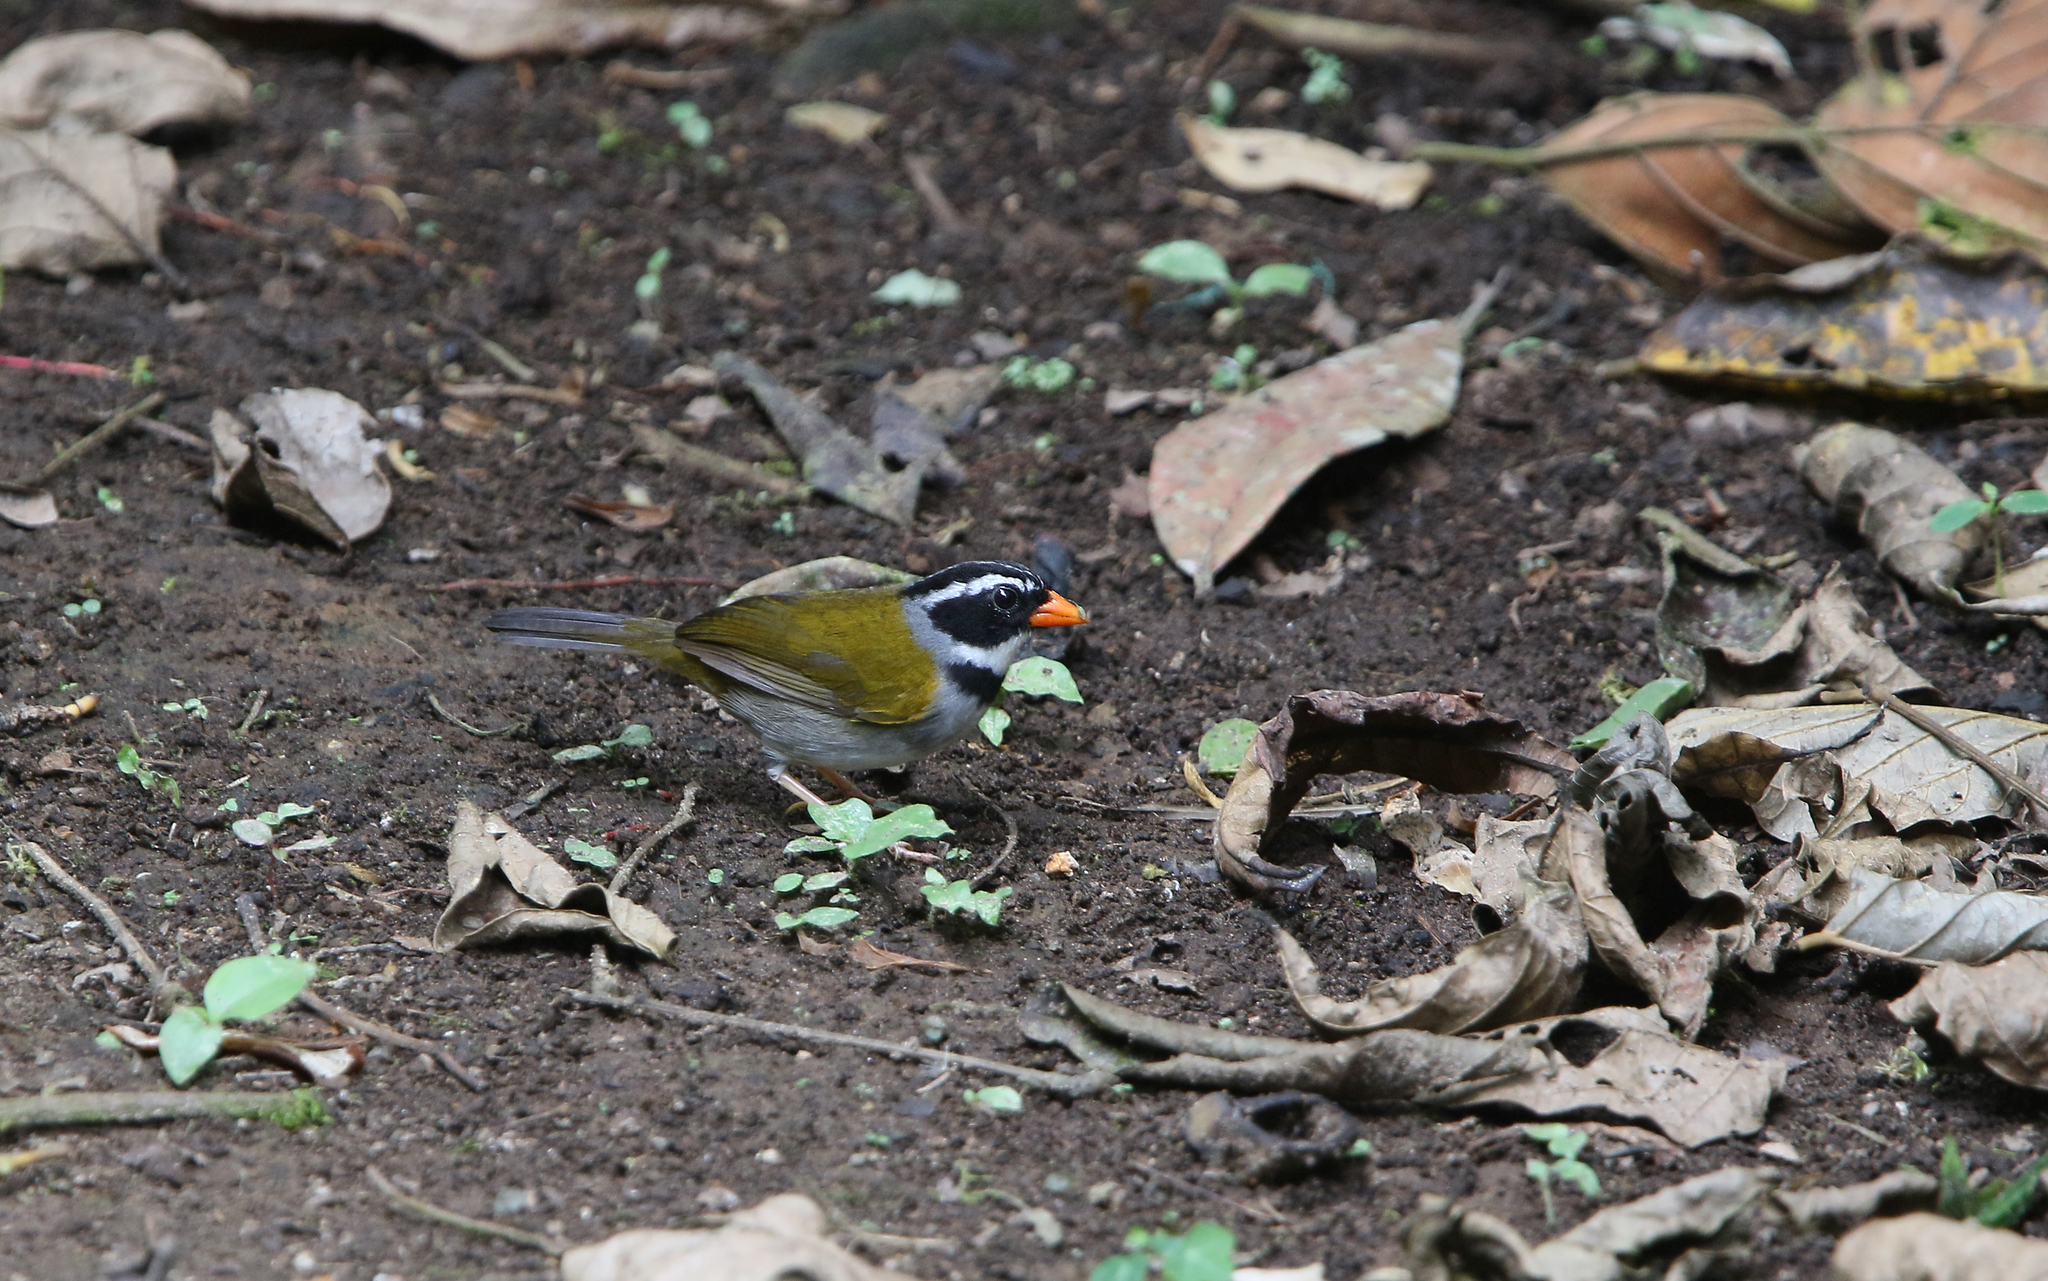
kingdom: Animalia
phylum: Chordata
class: Aves
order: Passeriformes
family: Passerellidae
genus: Arremon
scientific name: Arremon aurantiirostris
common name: Orange-billed sparrow
